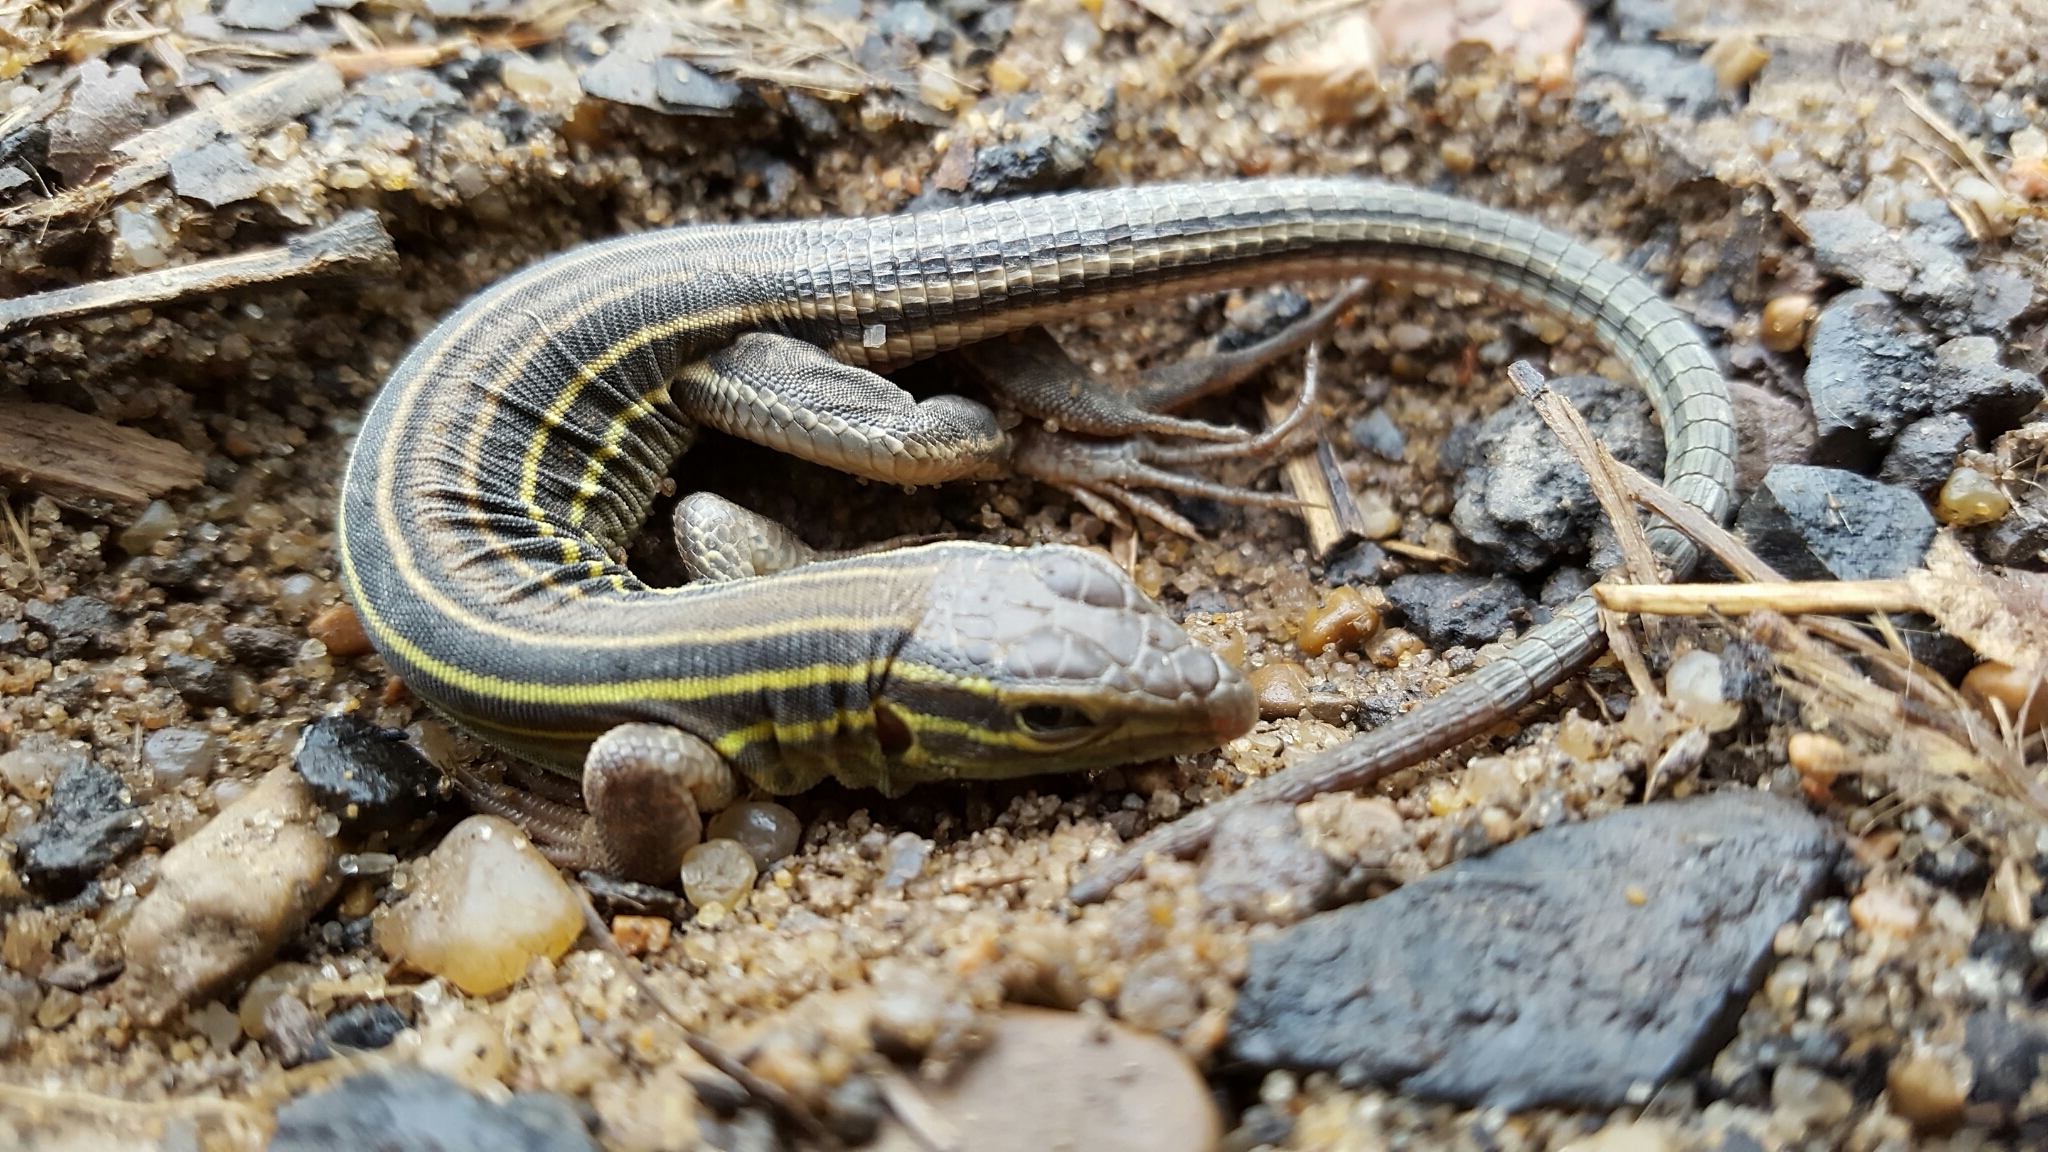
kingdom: Animalia
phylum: Chordata
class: Squamata
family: Teiidae
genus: Aspidoscelis
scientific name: Aspidoscelis sexlineatus
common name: Six-lined racerunner
